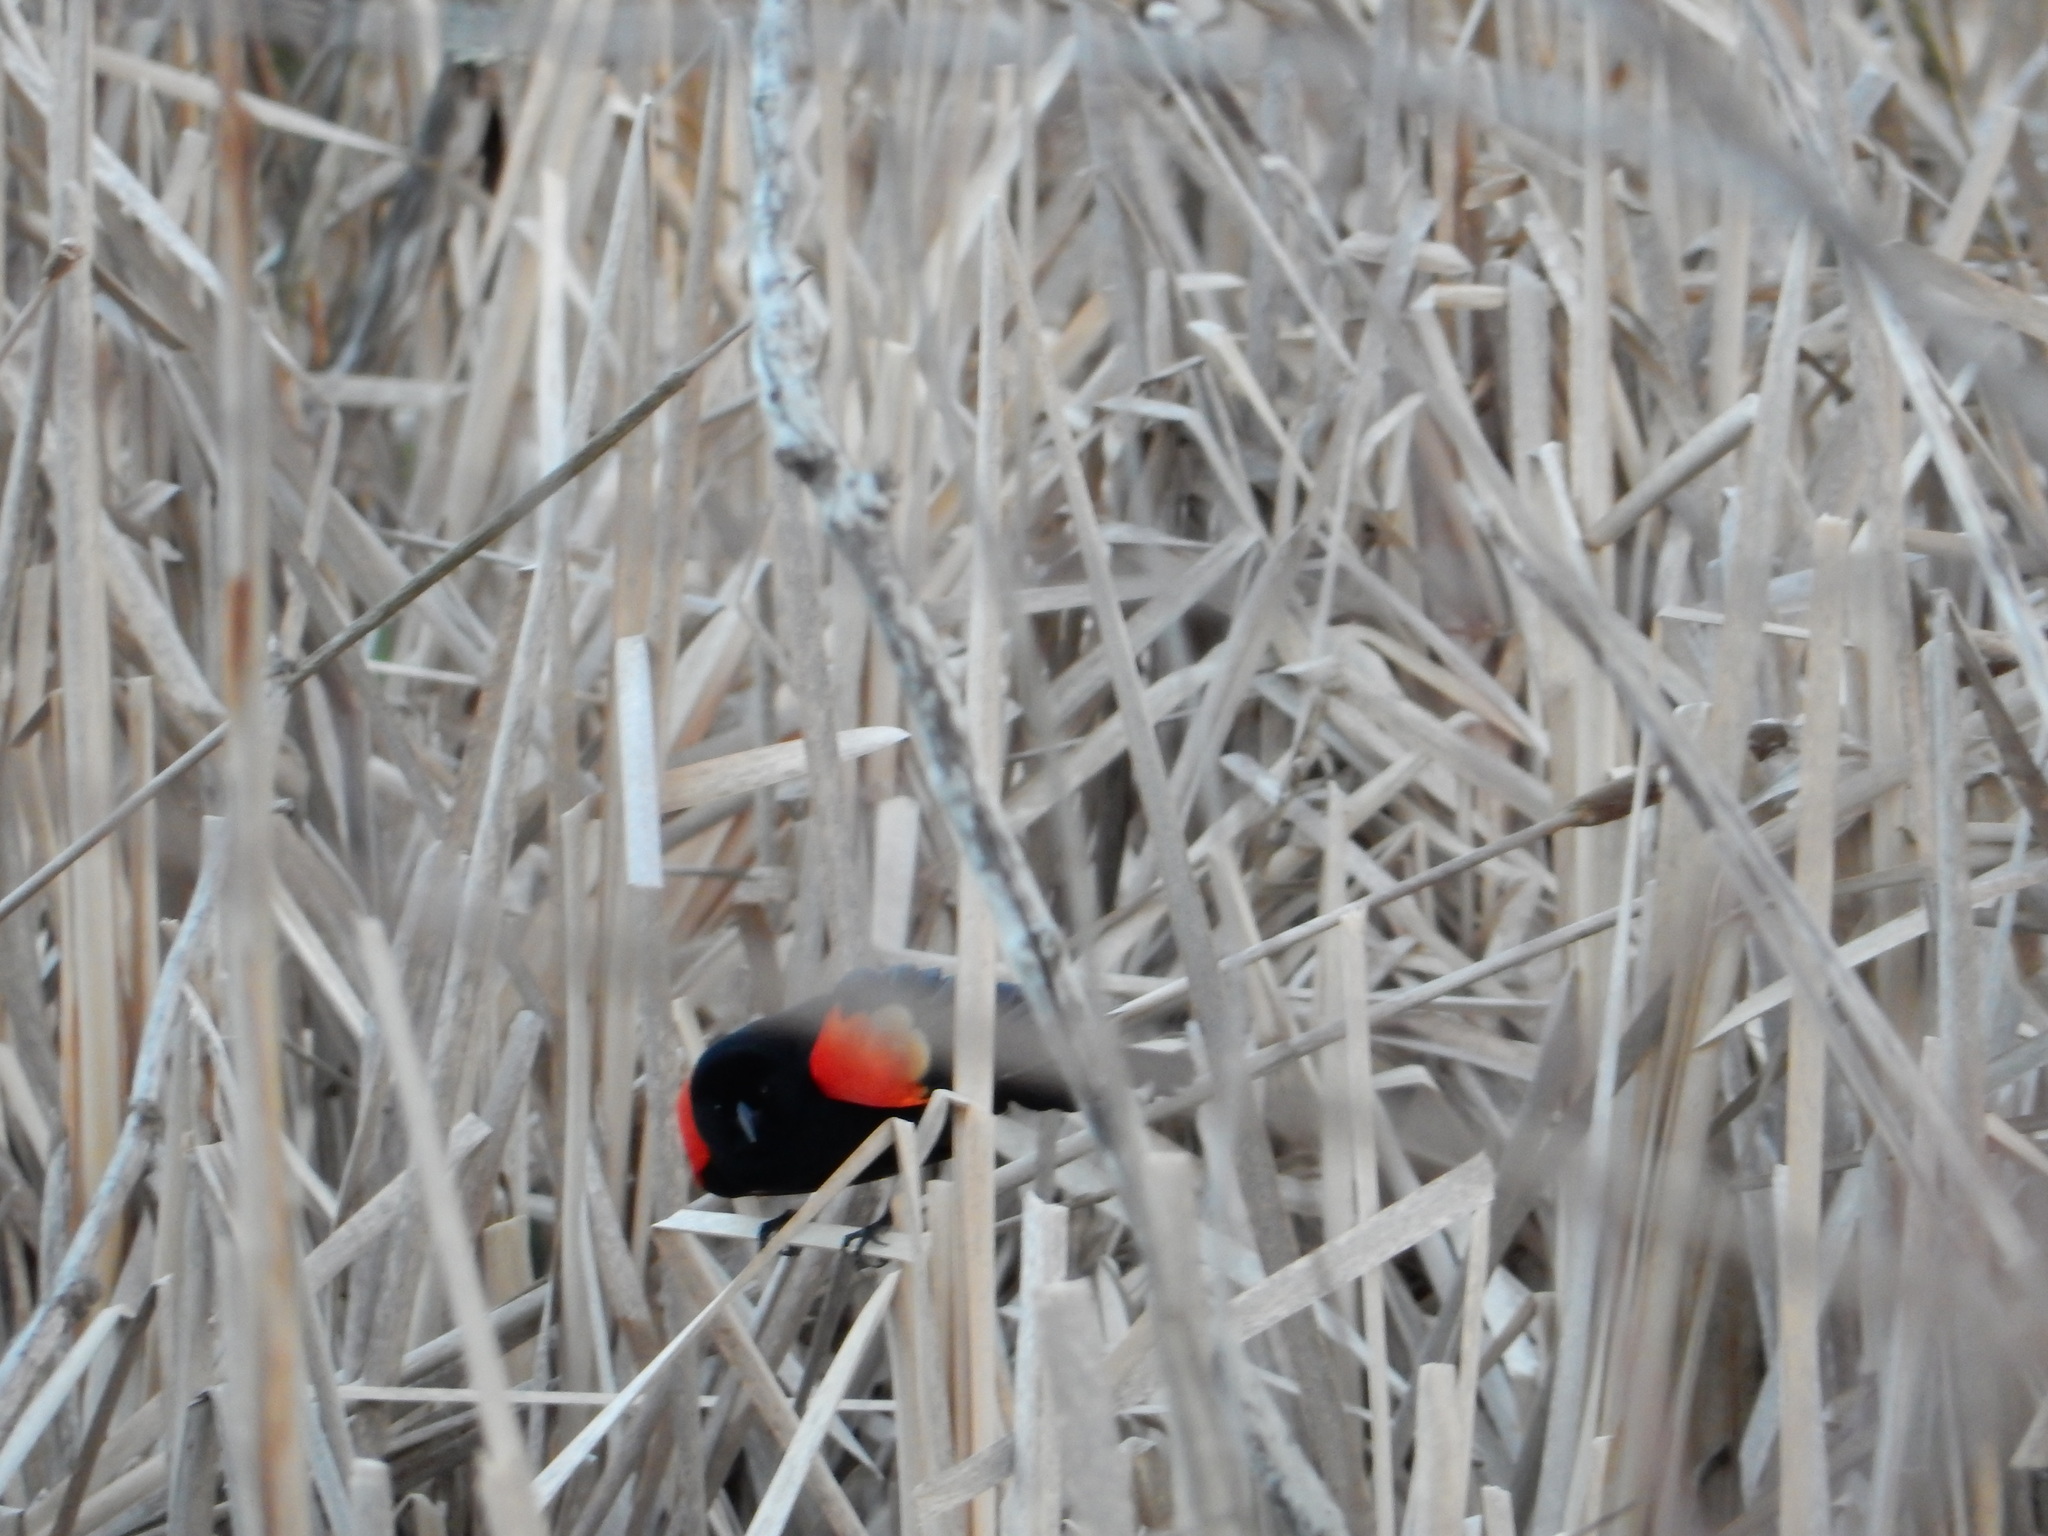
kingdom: Animalia
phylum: Chordata
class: Aves
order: Passeriformes
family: Icteridae
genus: Agelaius
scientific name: Agelaius phoeniceus
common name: Red-winged blackbird
